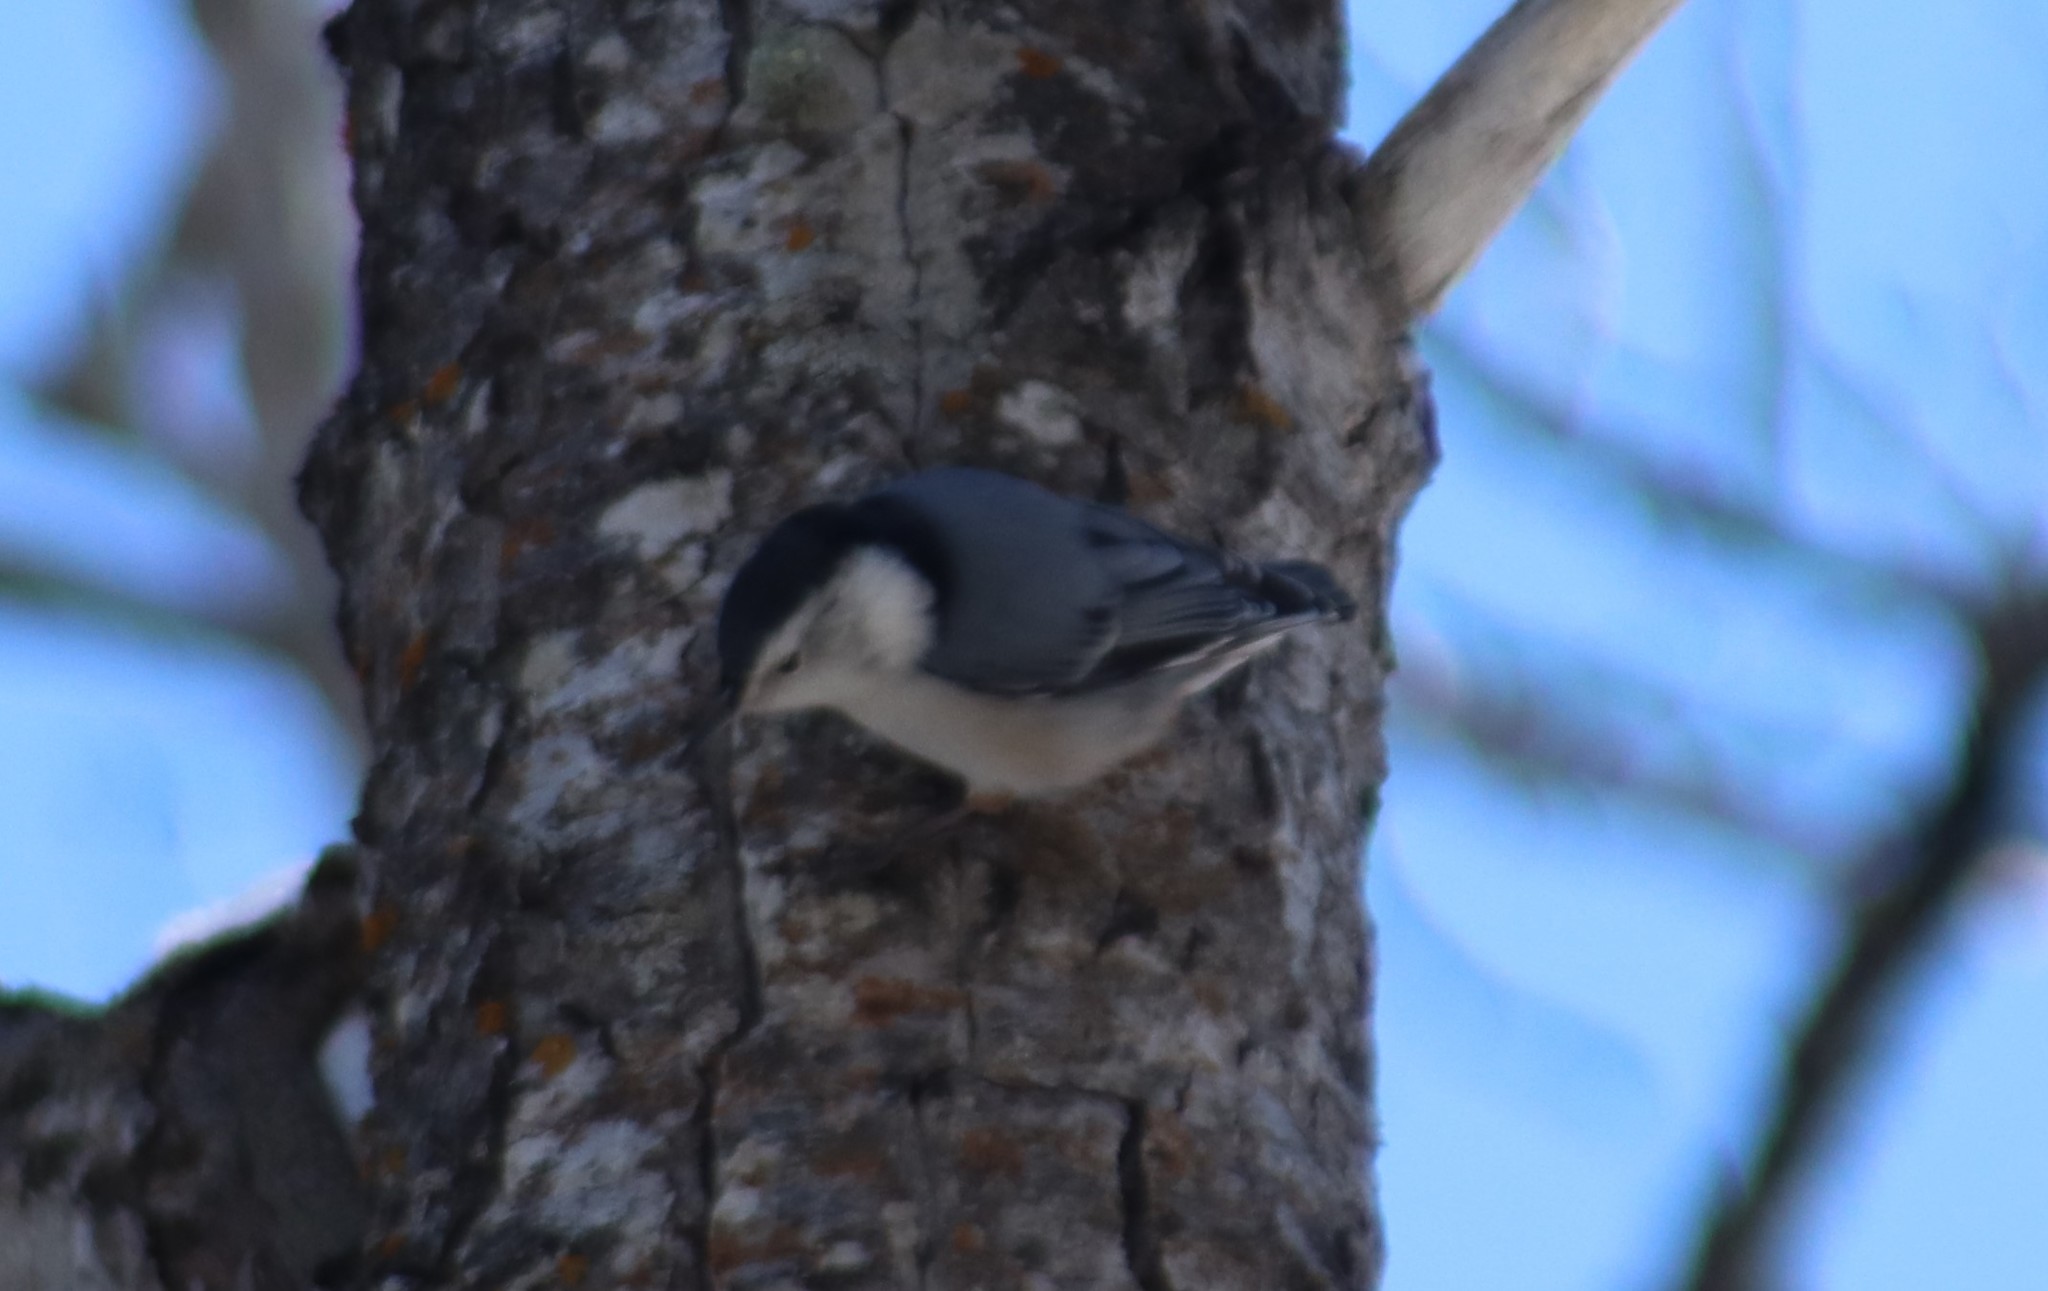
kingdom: Animalia
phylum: Chordata
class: Aves
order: Passeriformes
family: Sittidae
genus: Sitta
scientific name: Sitta carolinensis
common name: White-breasted nuthatch
